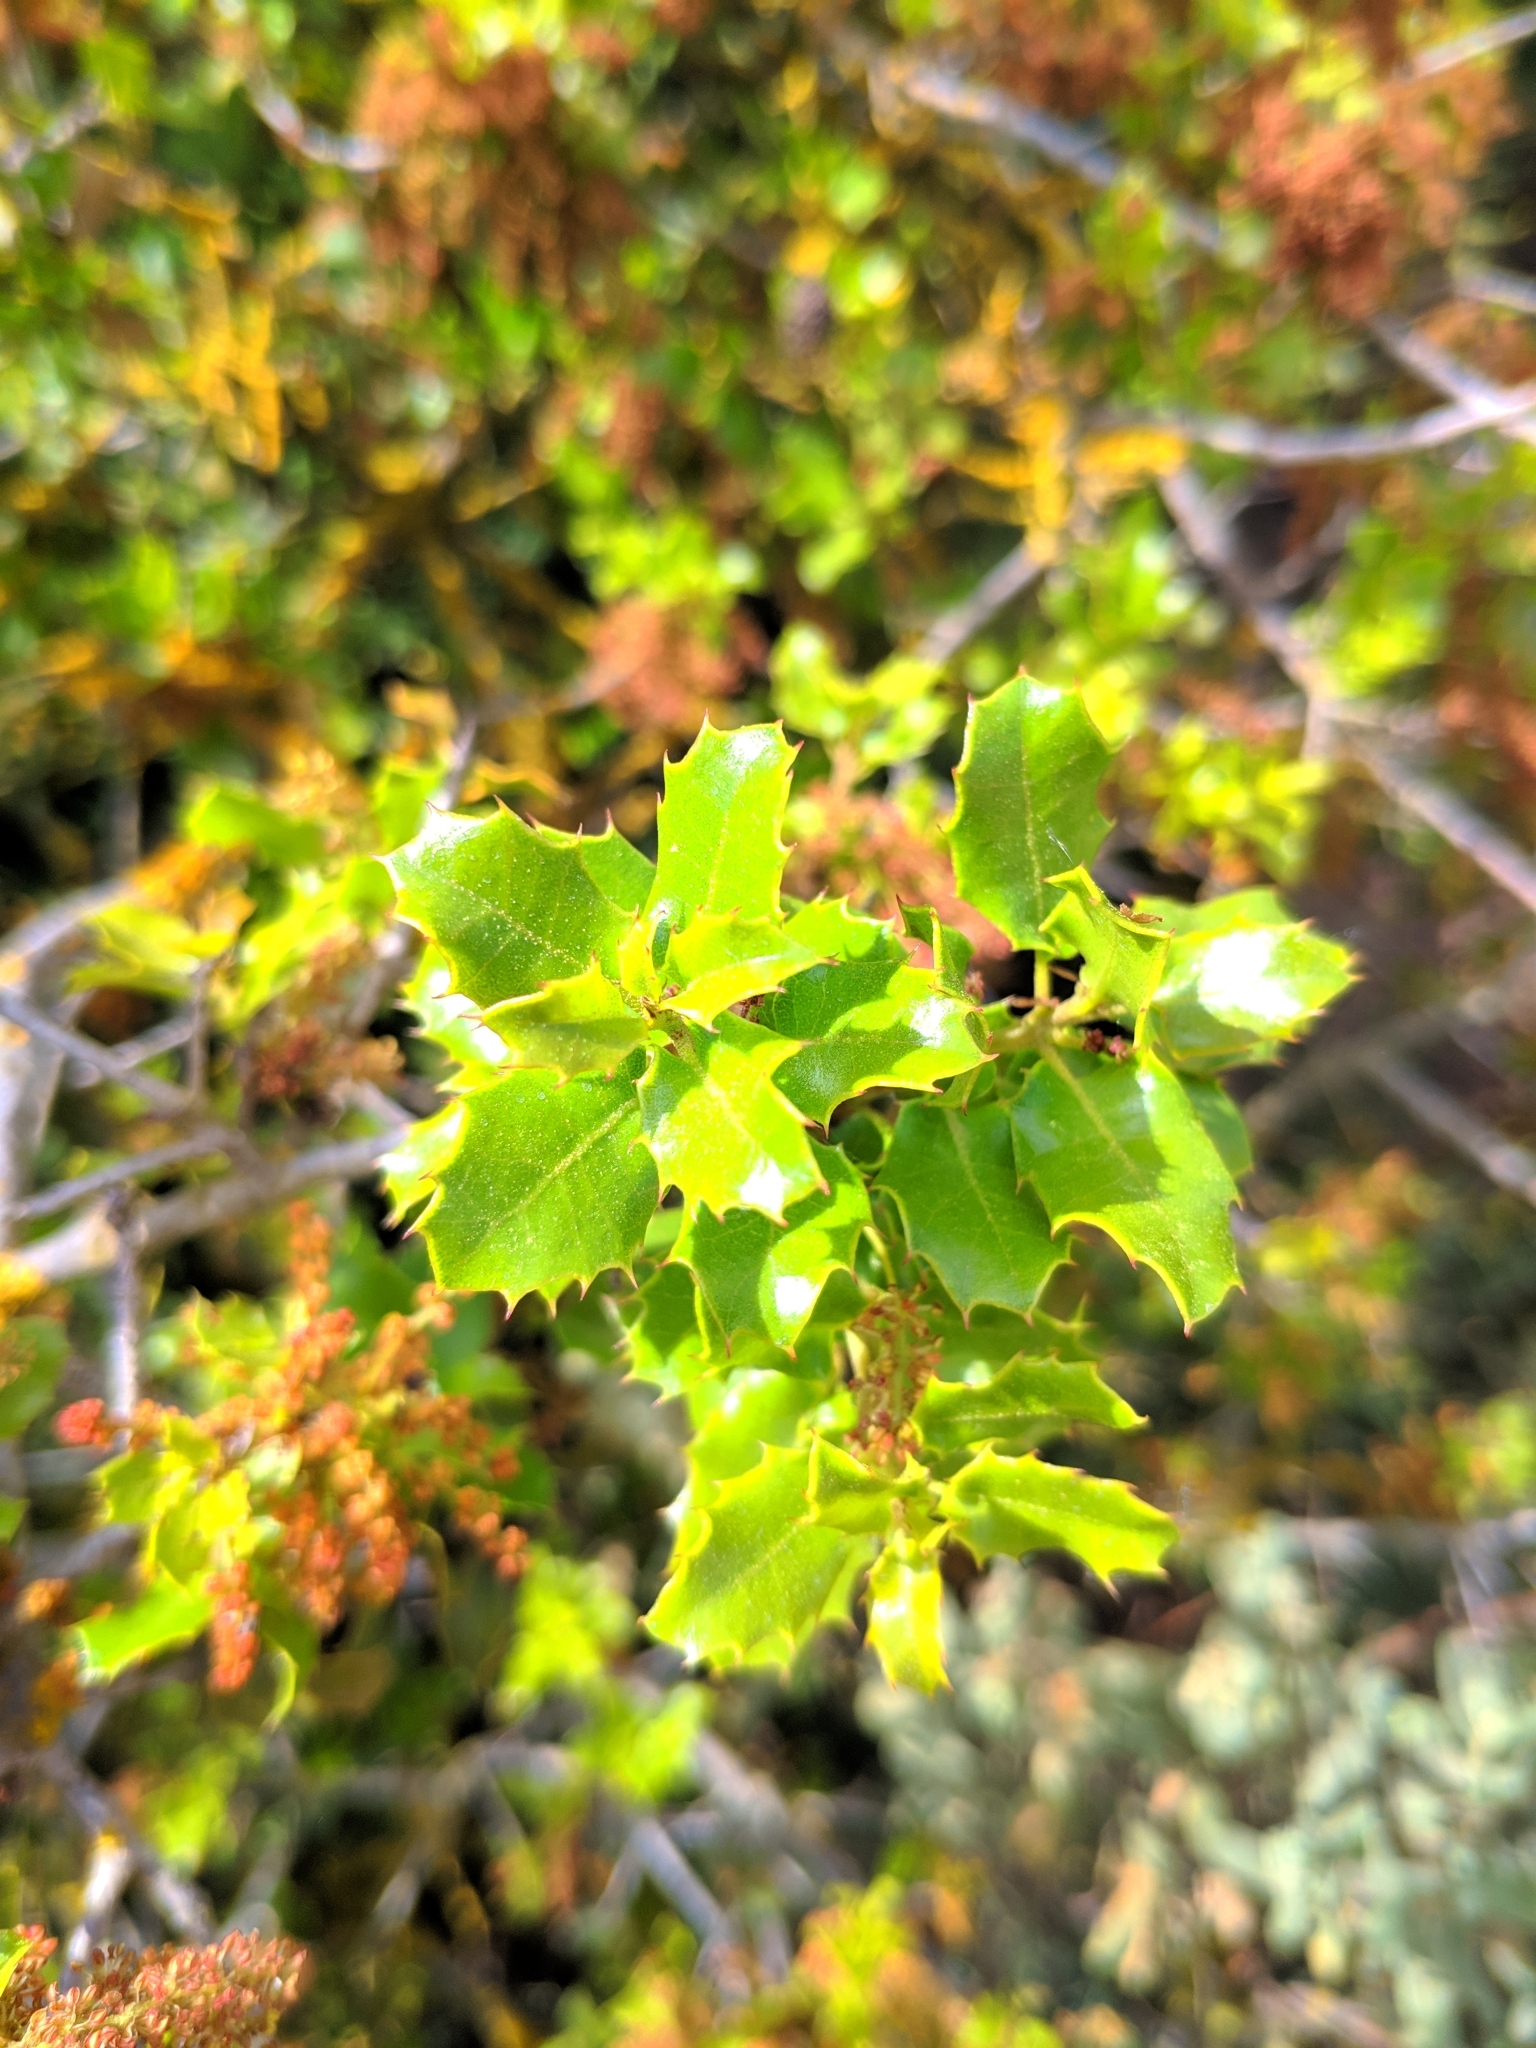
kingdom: Plantae
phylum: Tracheophyta
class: Magnoliopsida
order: Fagales
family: Fagaceae
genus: Quercus
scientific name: Quercus coccifera
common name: Kermes oak
